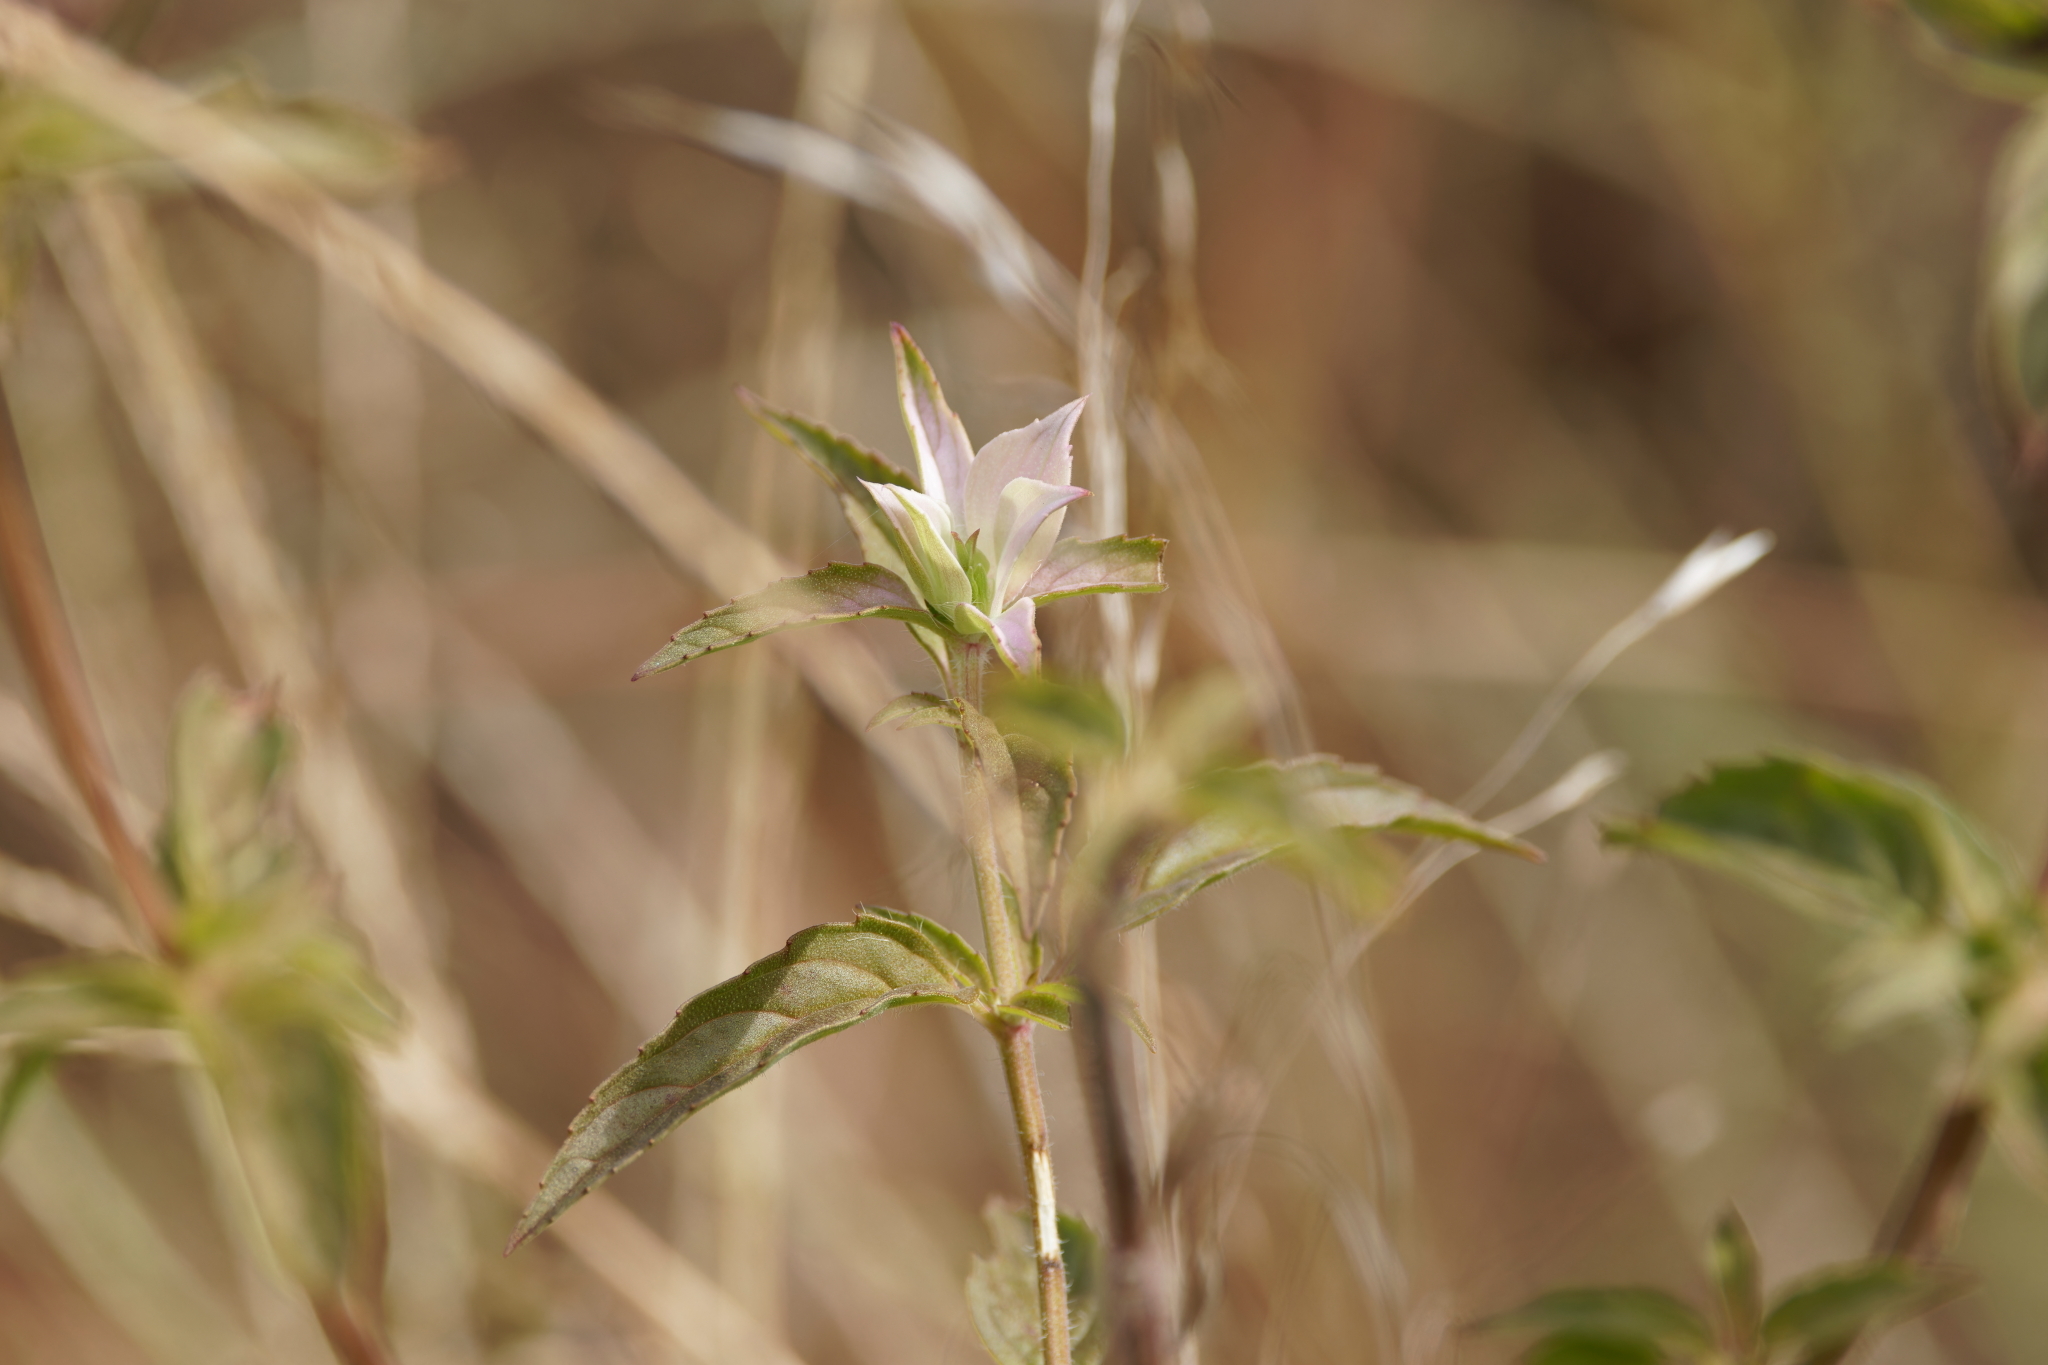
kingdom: Plantae
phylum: Tracheophyta
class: Magnoliopsida
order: Lamiales
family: Lamiaceae
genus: Monarda
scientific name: Monarda punctata
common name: Dotted monarda
